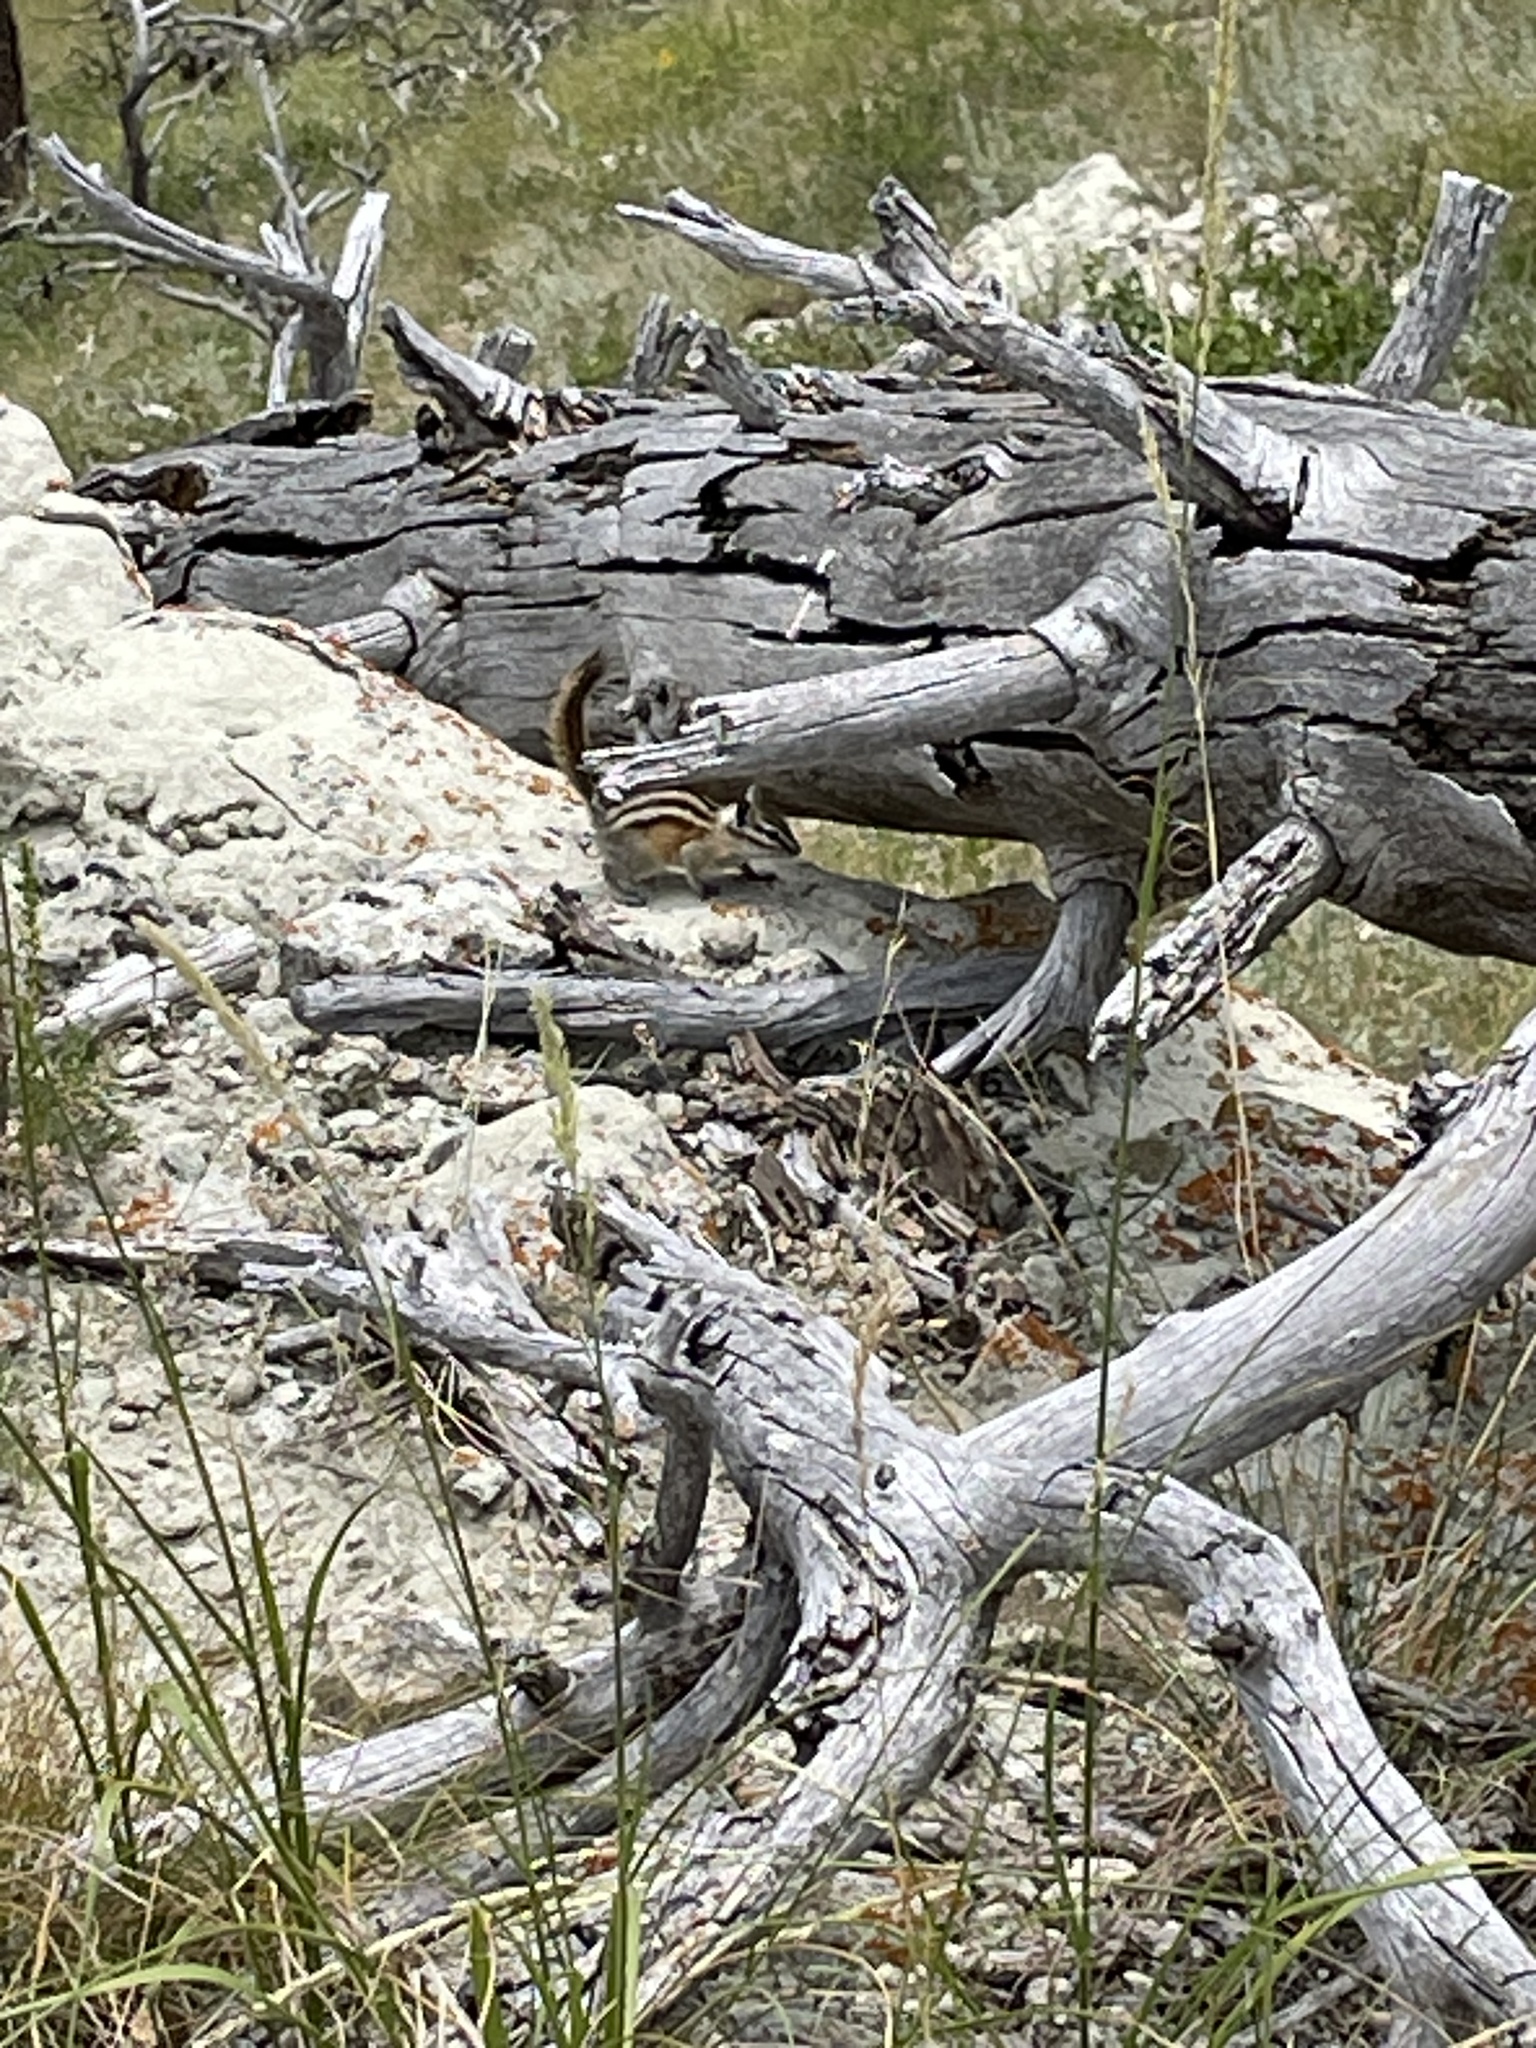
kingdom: Animalia
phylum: Chordata
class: Mammalia
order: Rodentia
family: Sciuridae
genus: Tamias
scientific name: Tamias minimus
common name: Least chipmunk
